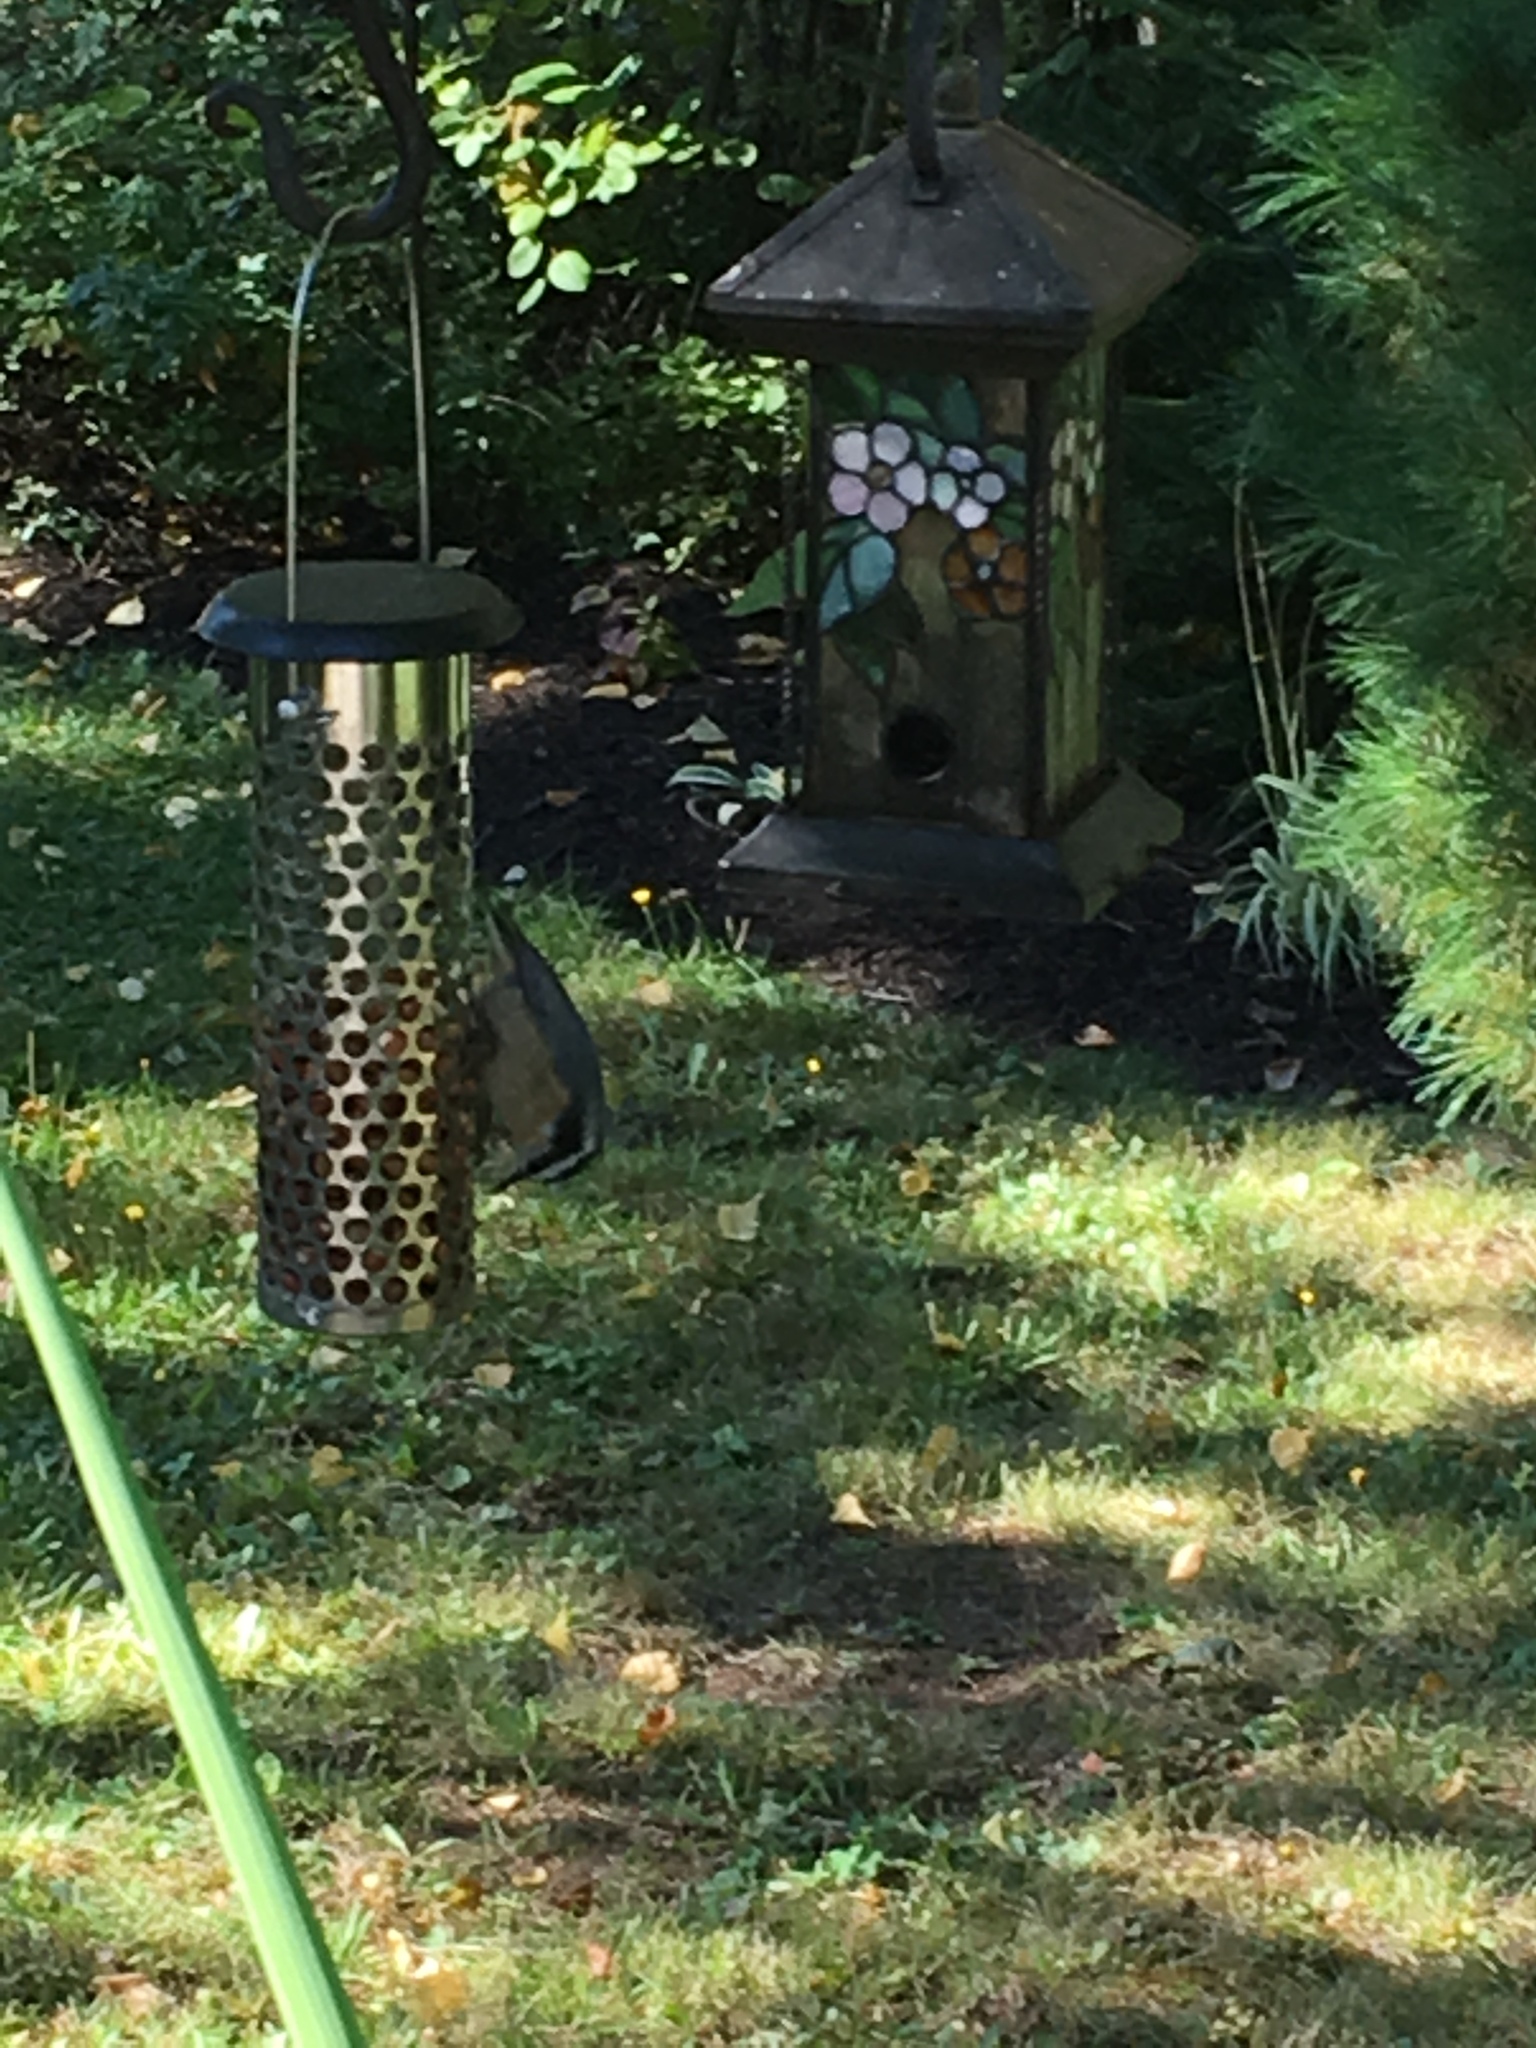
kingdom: Animalia
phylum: Chordata
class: Aves
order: Passeriformes
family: Sittidae
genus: Sitta
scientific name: Sitta canadensis
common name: Red-breasted nuthatch
